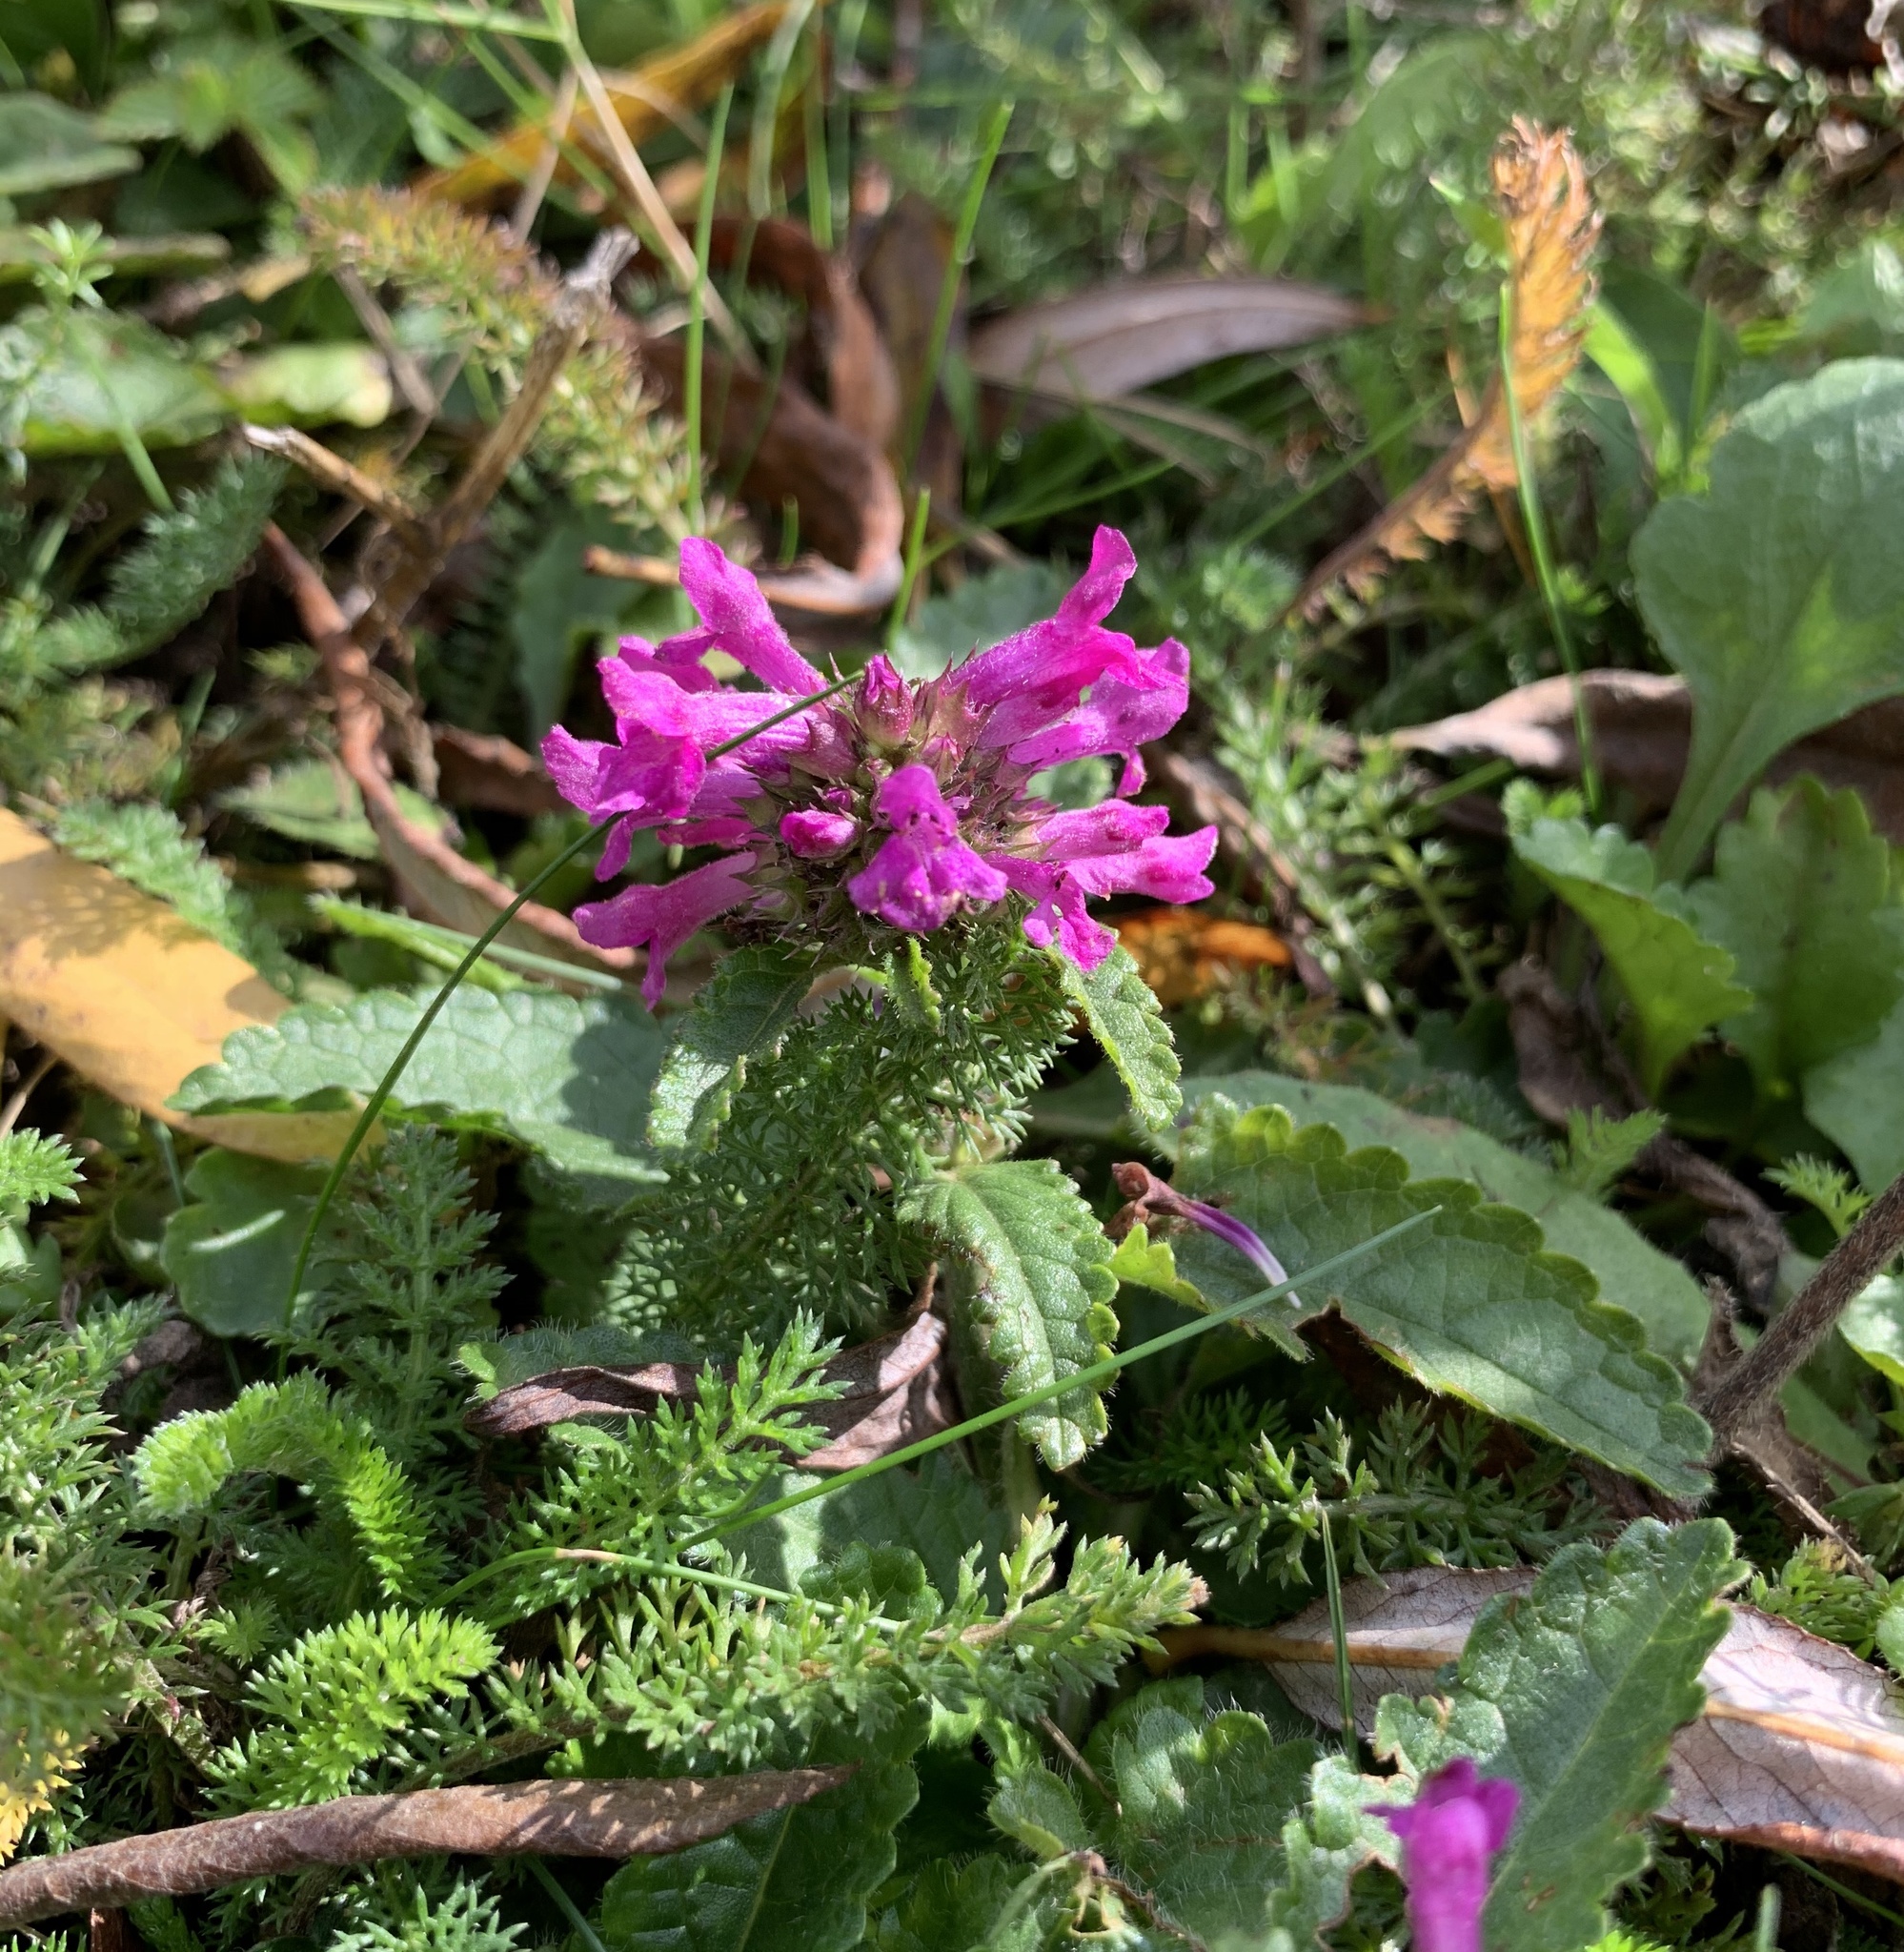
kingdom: Plantae
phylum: Tracheophyta
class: Magnoliopsida
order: Lamiales
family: Lamiaceae
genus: Betonica
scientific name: Betonica officinalis
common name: Bishop's-wort
